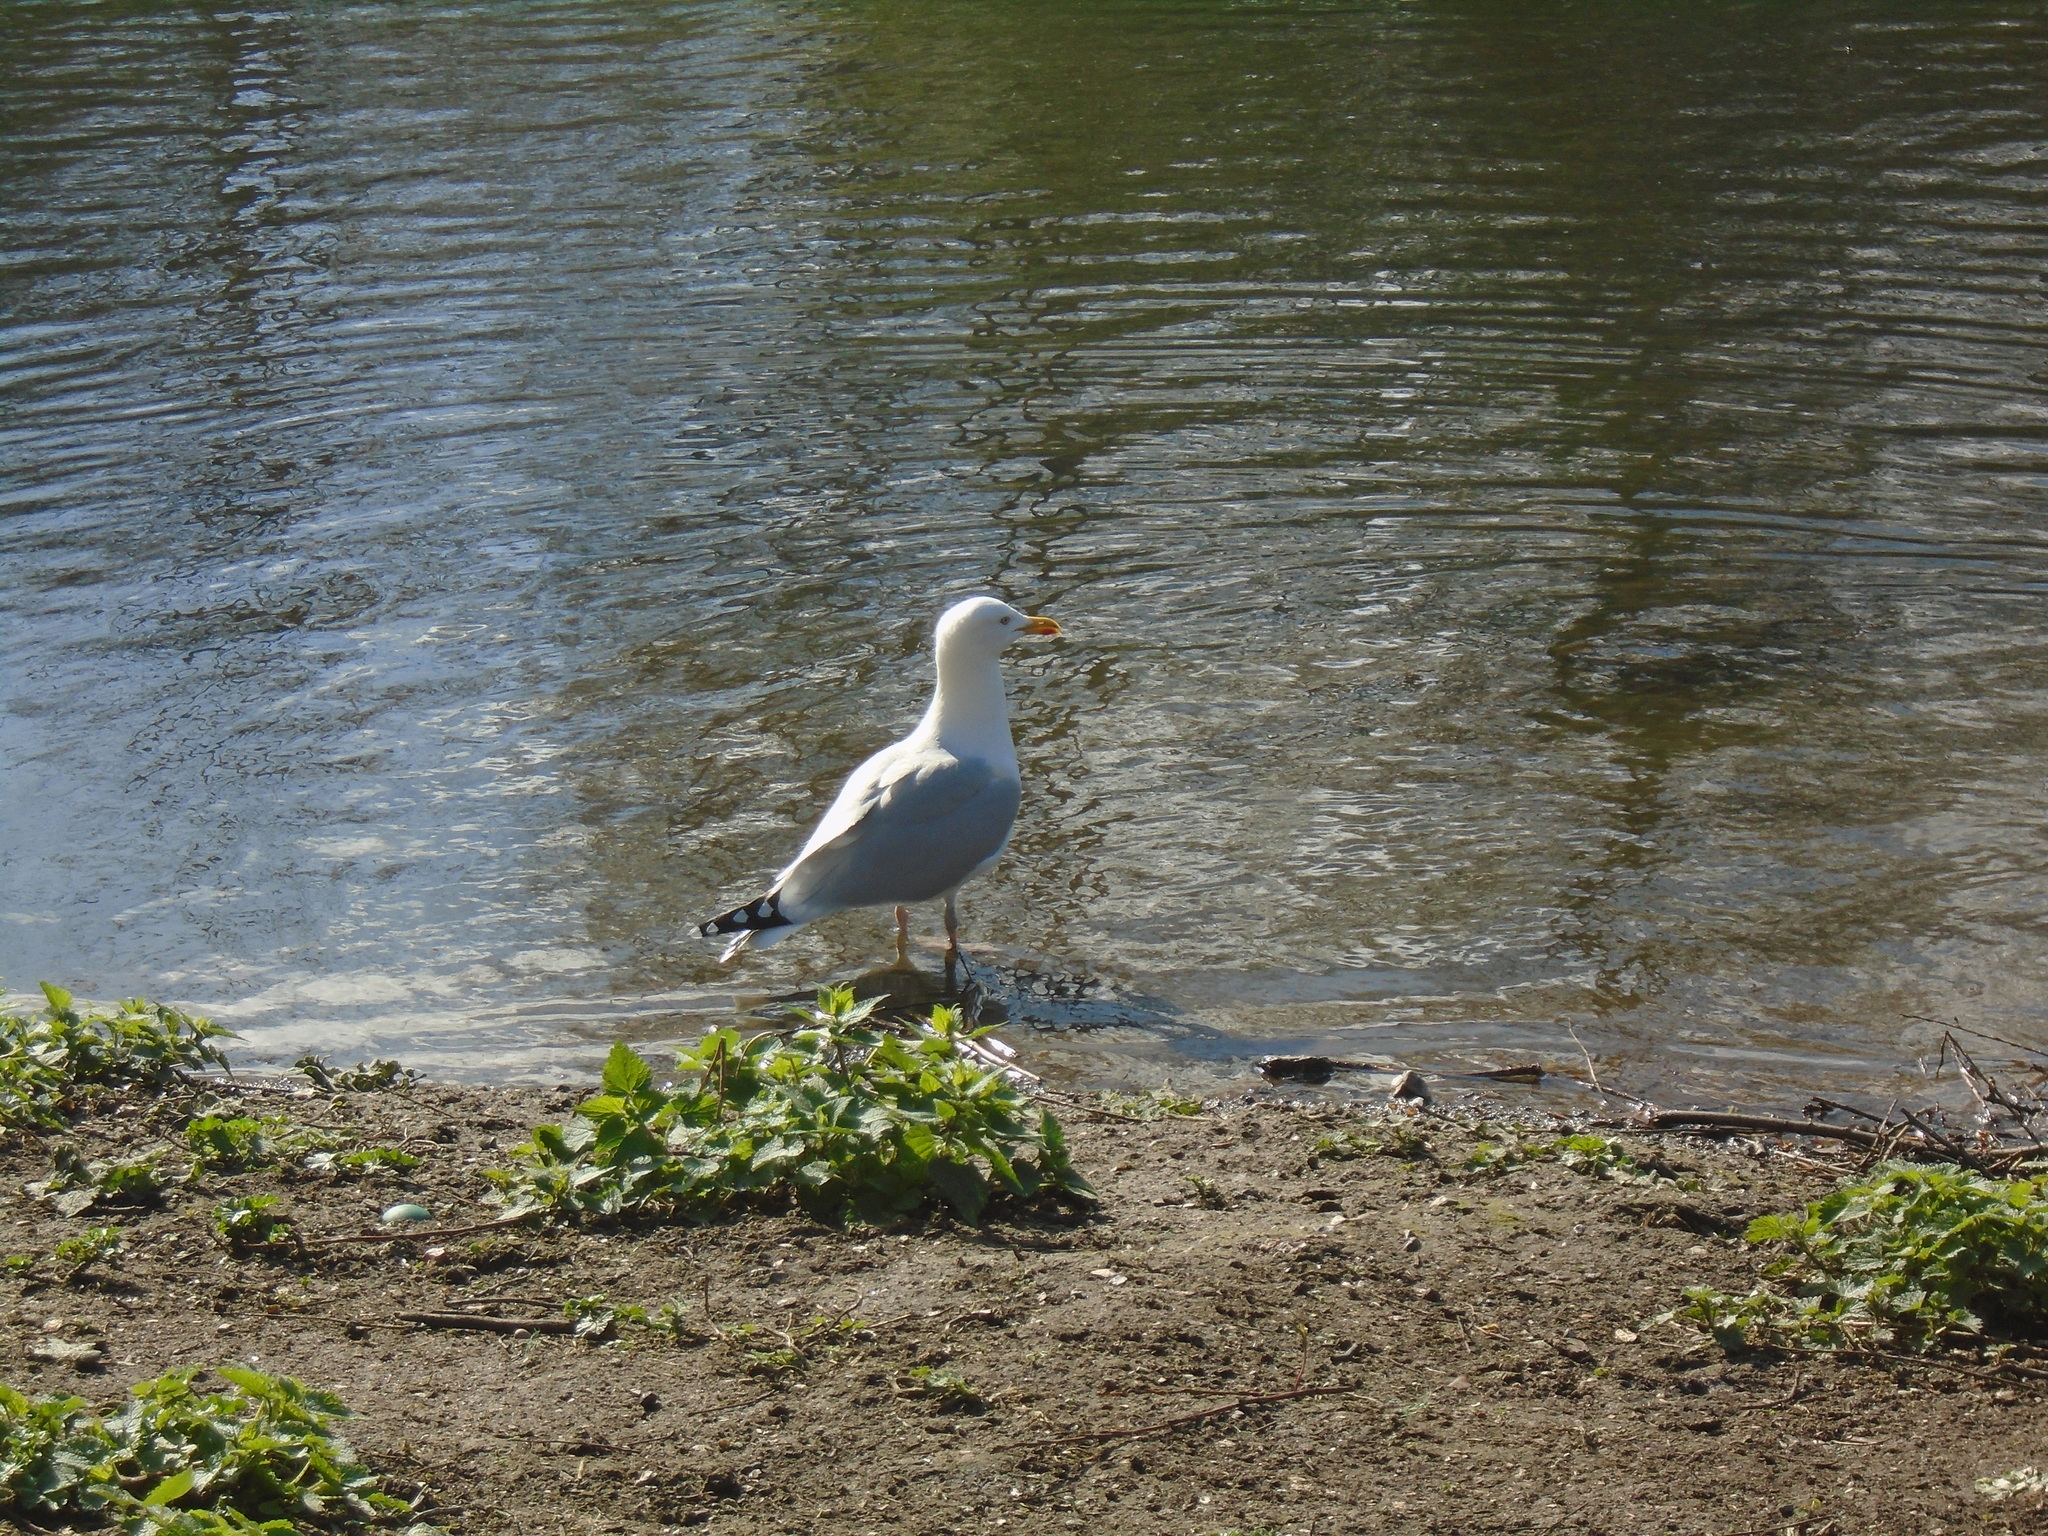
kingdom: Animalia
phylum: Chordata
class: Aves
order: Charadriiformes
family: Laridae
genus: Larus
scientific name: Larus argentatus
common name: Herring gull
